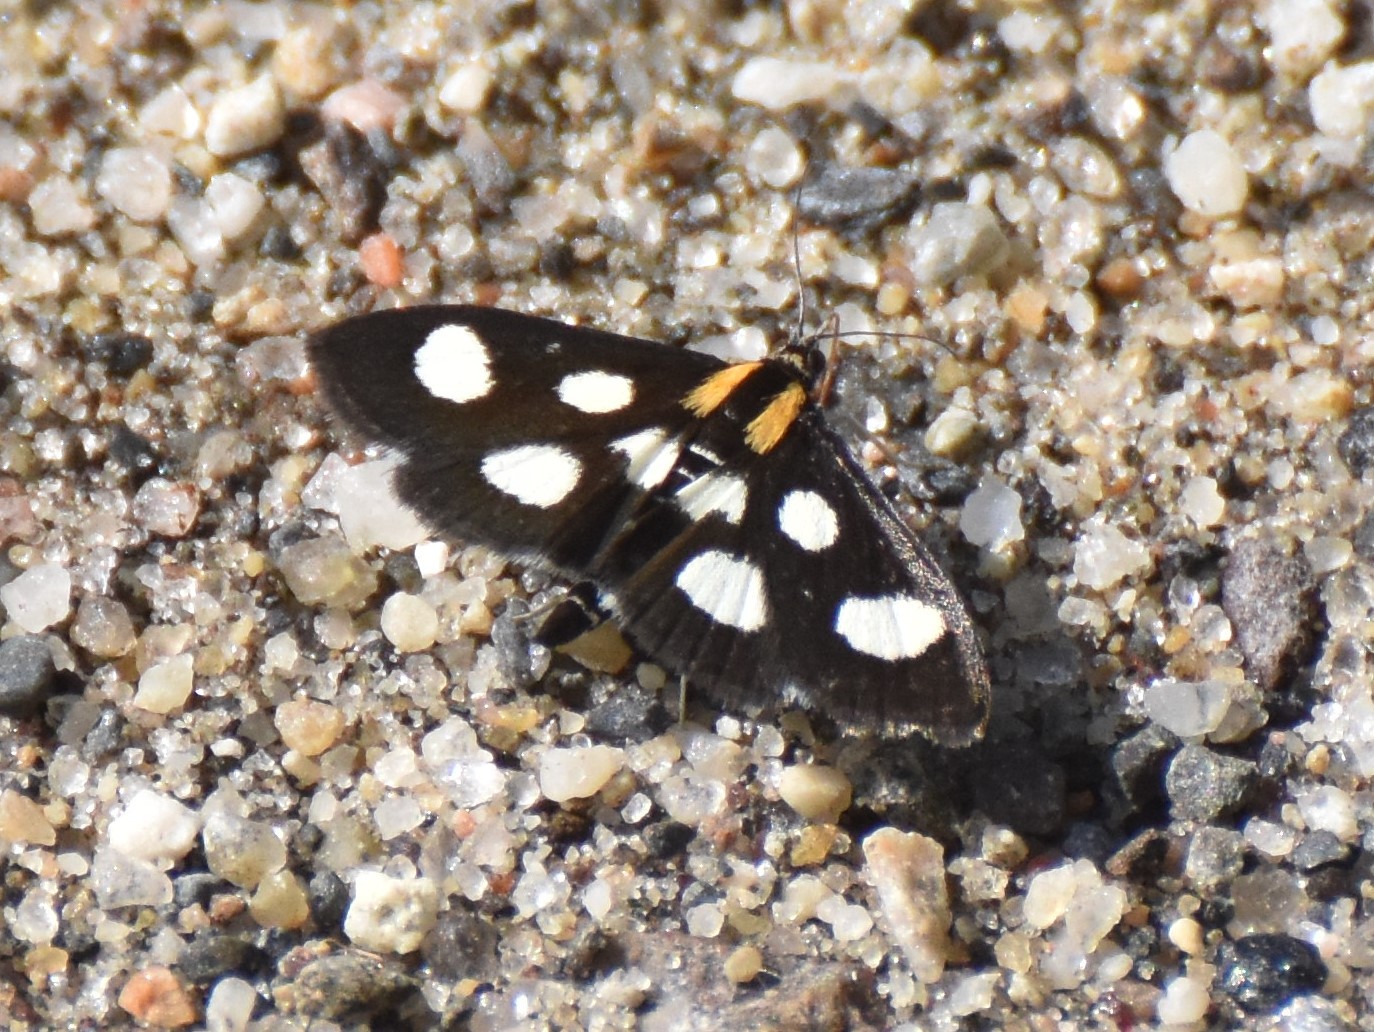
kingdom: Animalia
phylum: Arthropoda
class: Insecta
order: Lepidoptera
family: Crambidae
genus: Anania
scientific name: Anania funebris
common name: White-spotted sable moth
